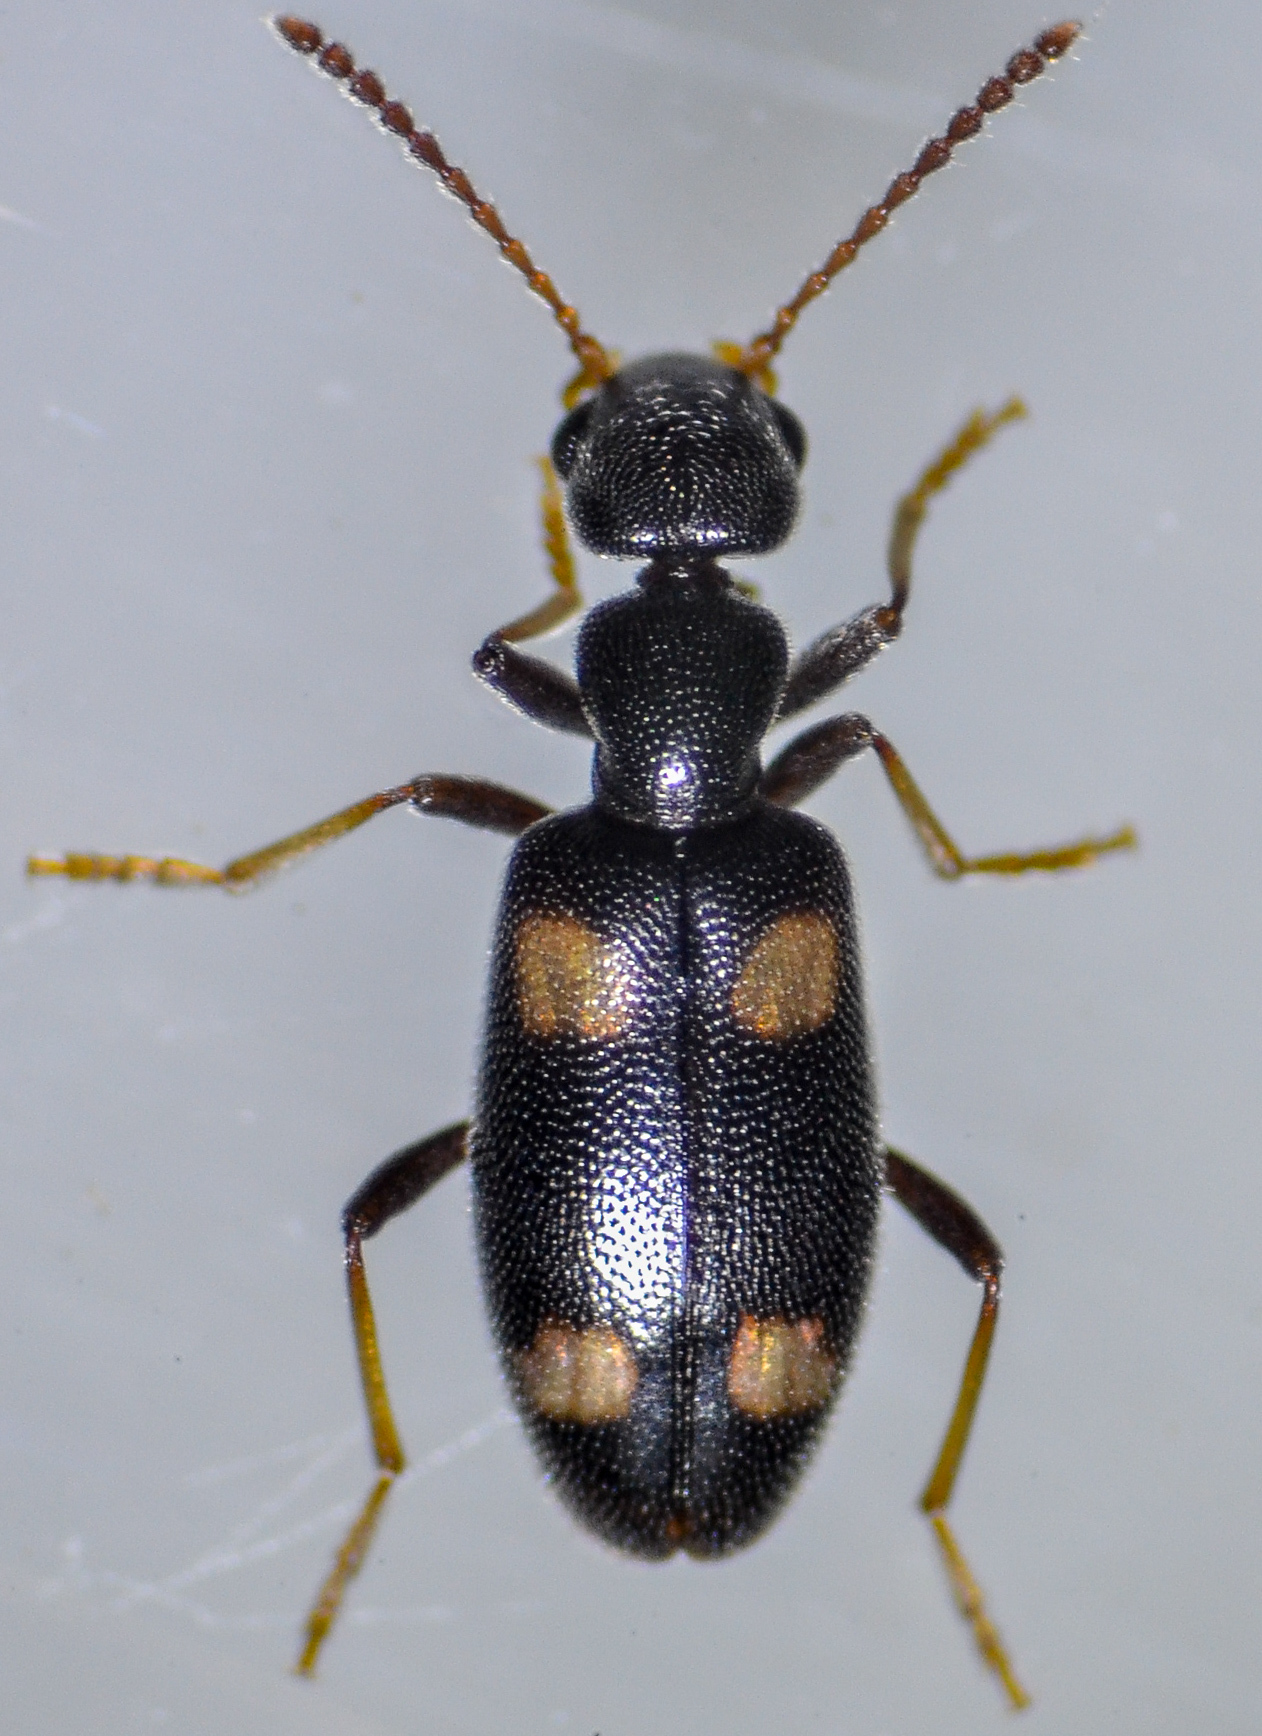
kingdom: Animalia
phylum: Arthropoda
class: Insecta
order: Coleoptera
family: Anthicidae
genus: Anthicus
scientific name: Anthicus lecontei
